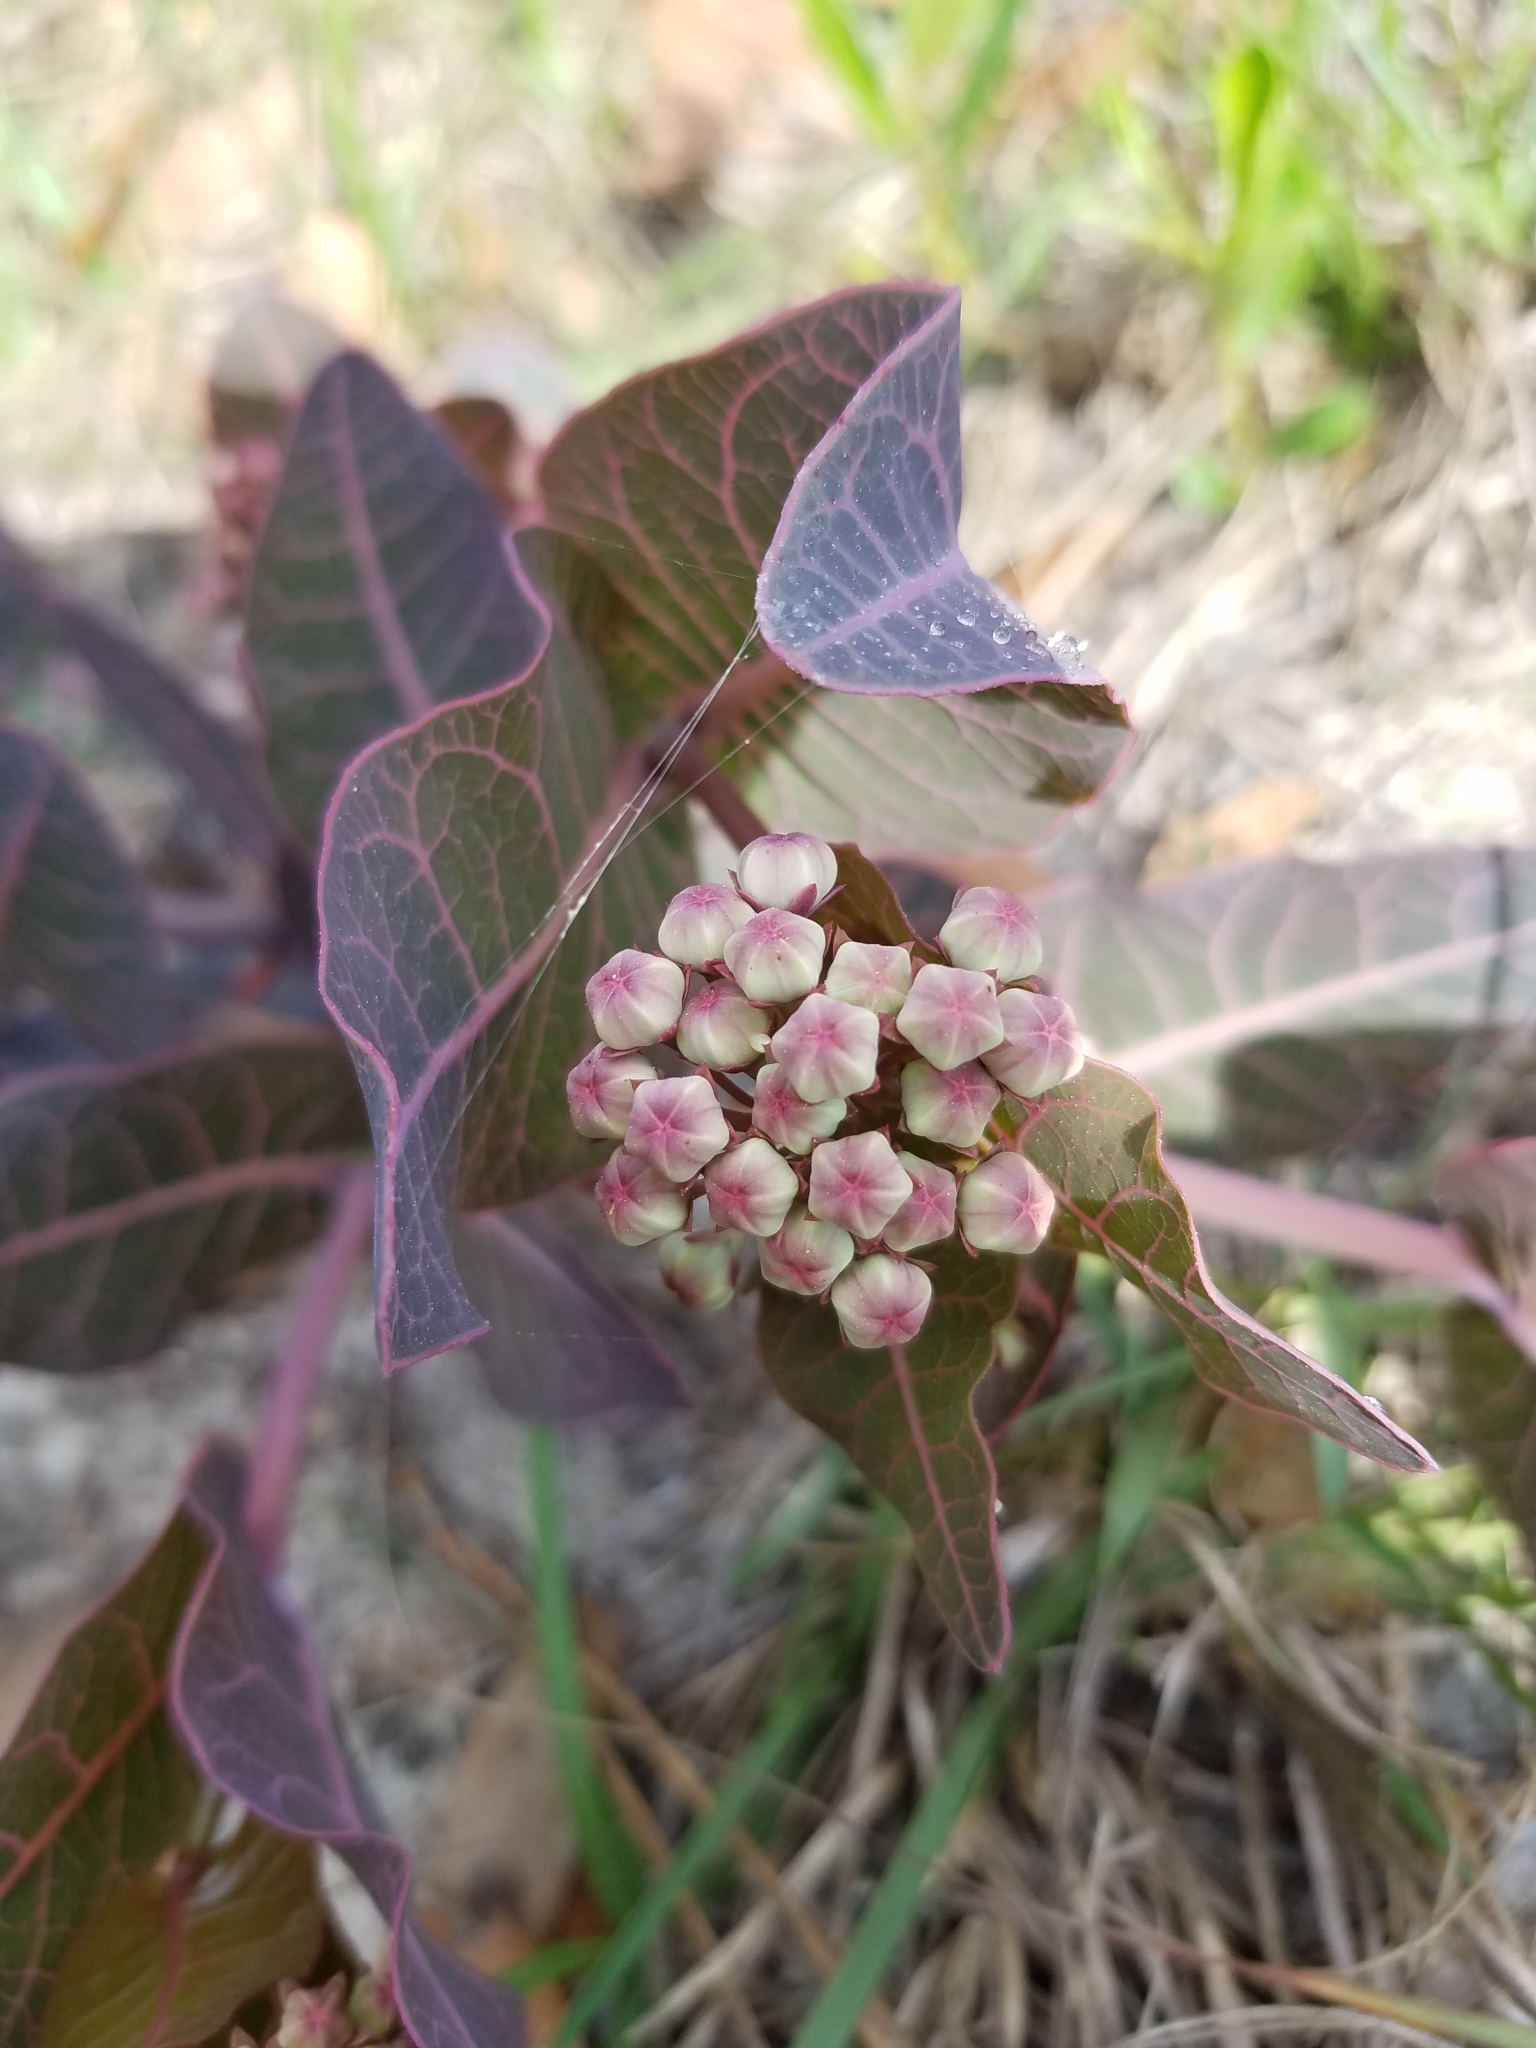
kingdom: Plantae
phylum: Tracheophyta
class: Magnoliopsida
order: Gentianales
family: Apocynaceae
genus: Asclepias
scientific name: Asclepias humistrata
